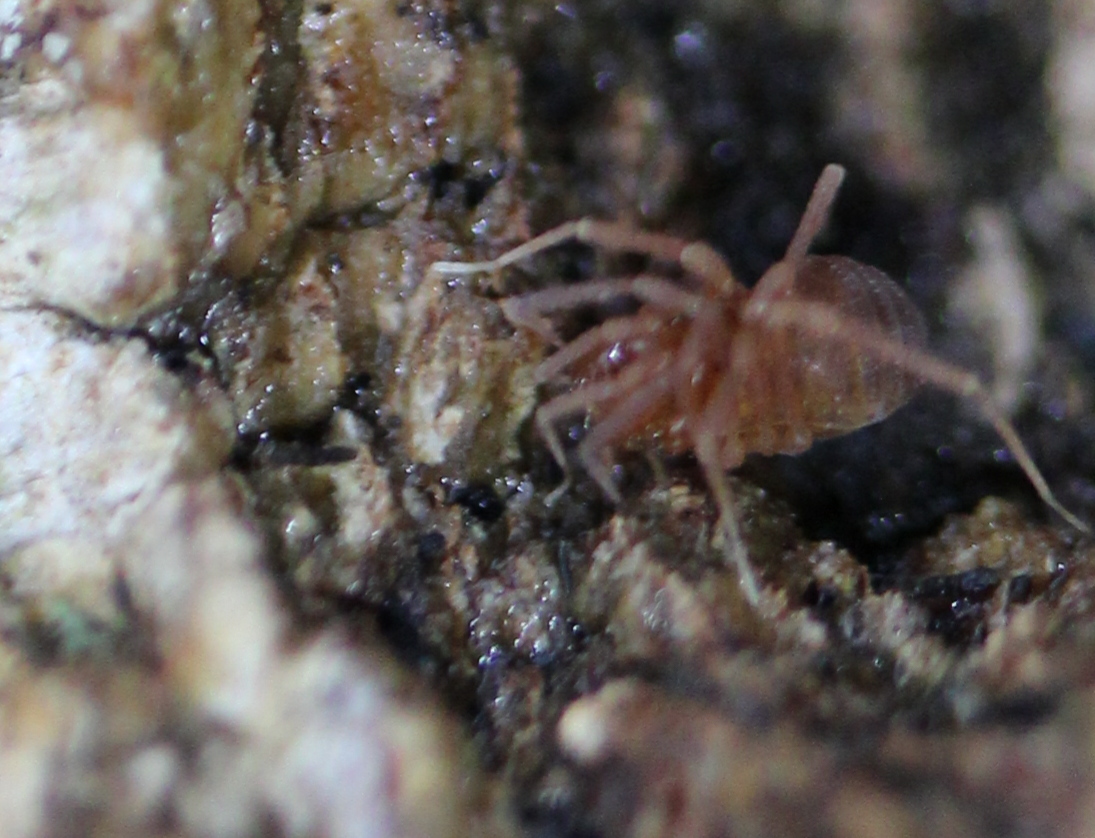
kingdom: Animalia
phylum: Arthropoda
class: Arachnida
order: Opiliones
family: Cladonychiidae
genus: Erebomaster
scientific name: Erebomaster acanthinus
